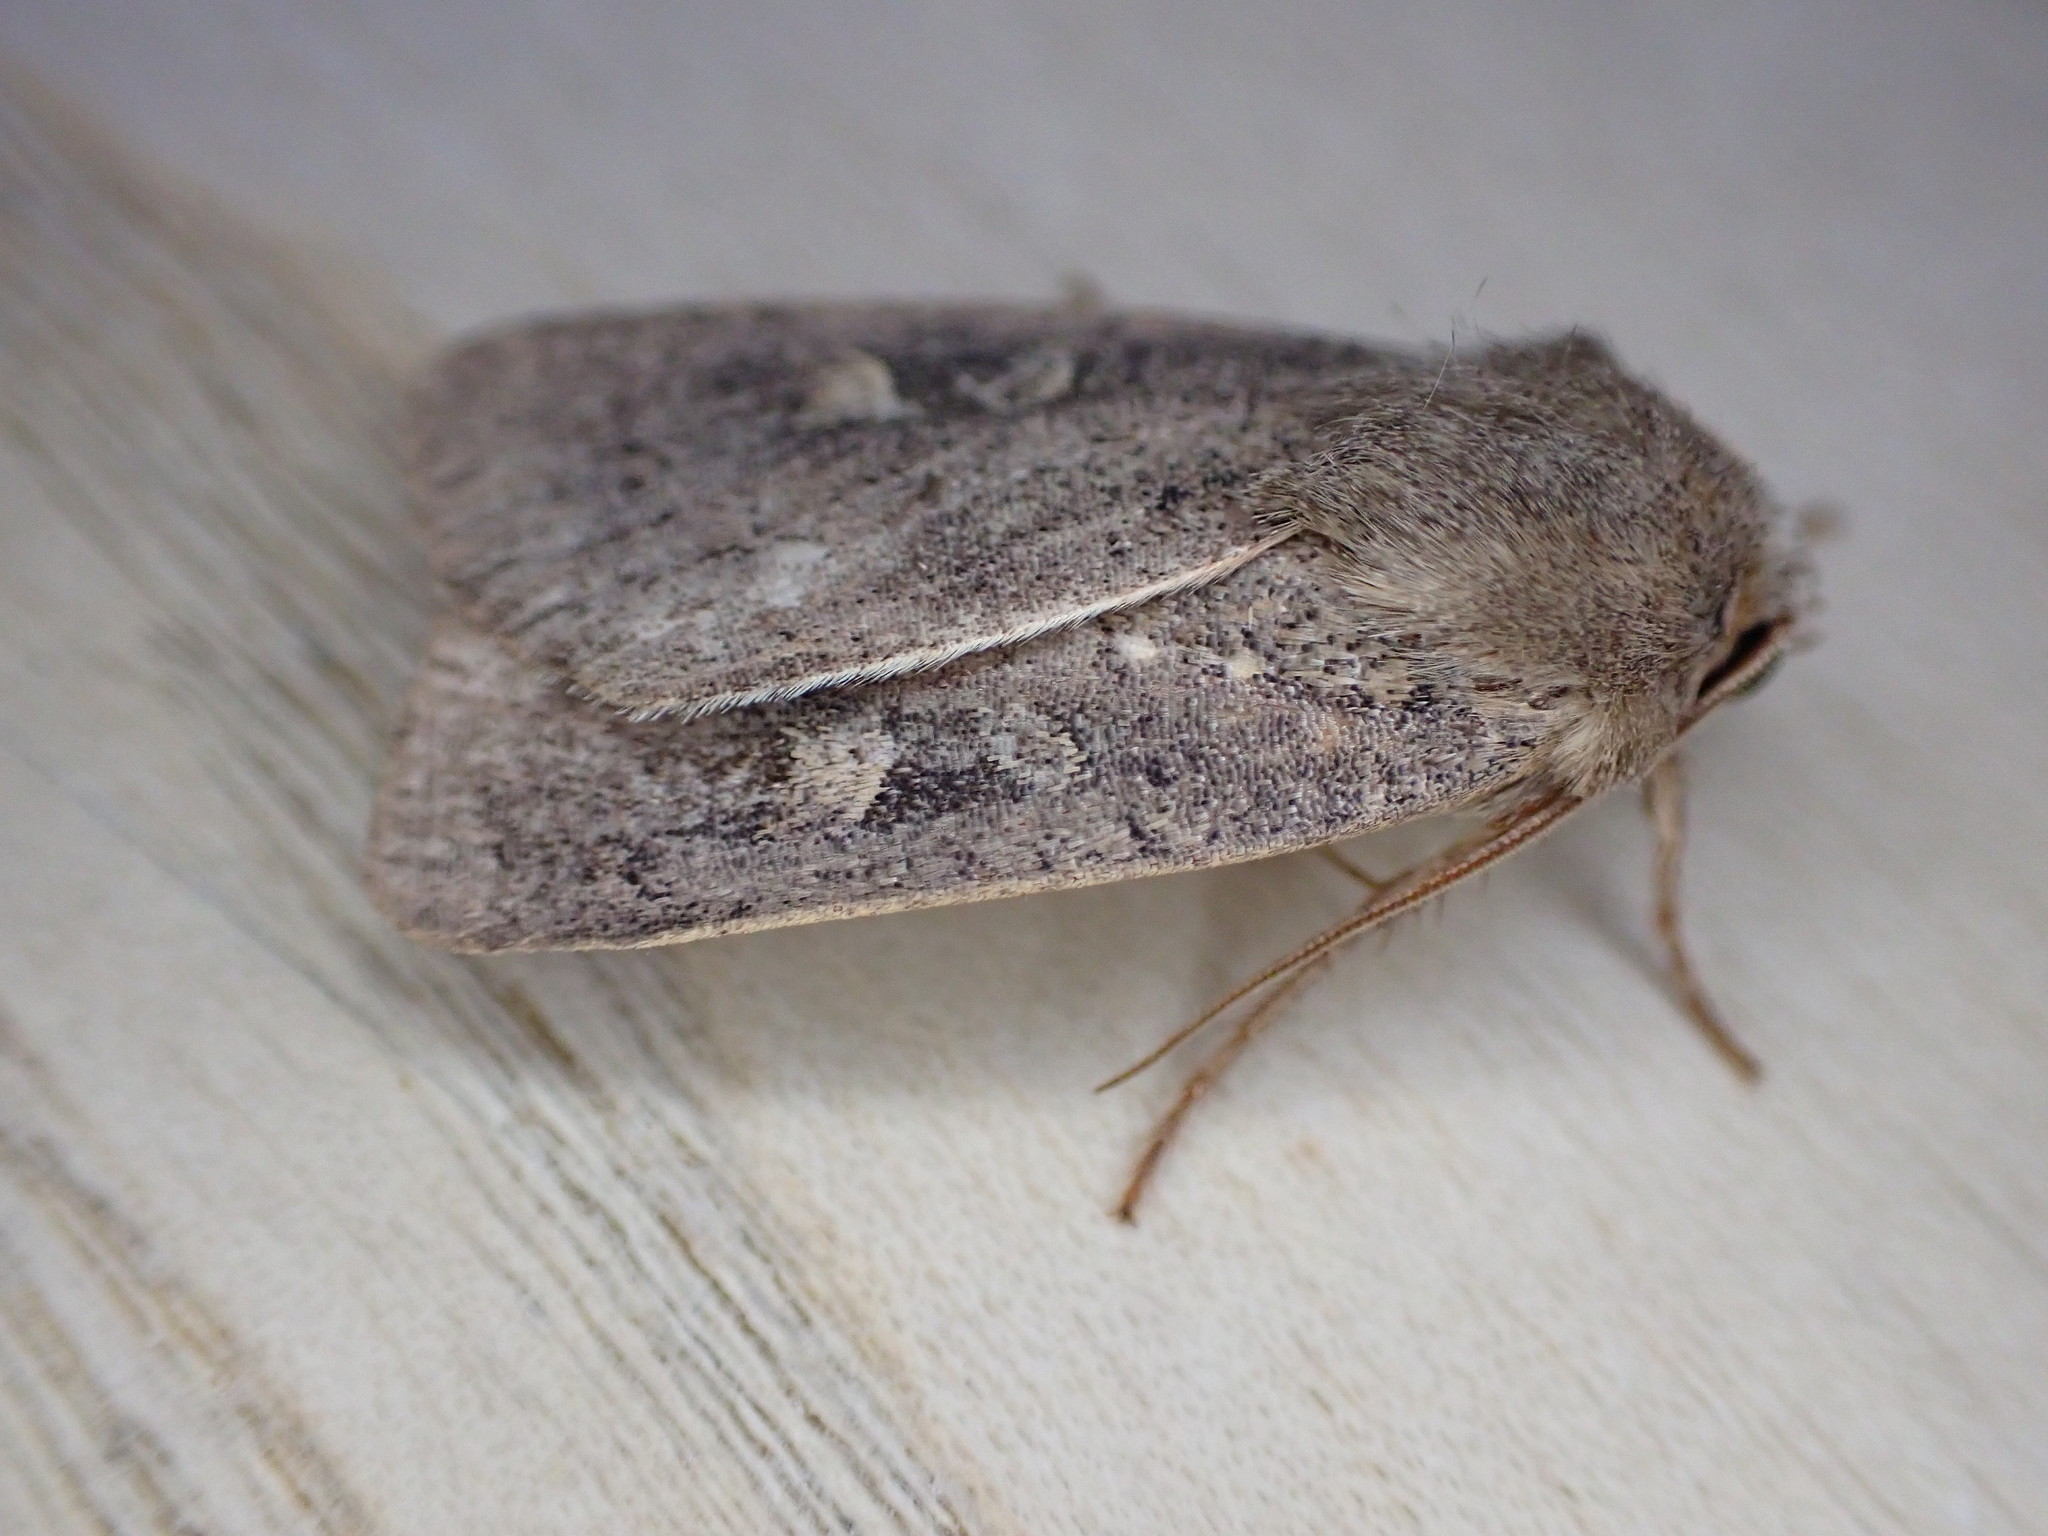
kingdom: Animalia
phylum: Arthropoda
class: Insecta
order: Lepidoptera
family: Noctuidae
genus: Xestia
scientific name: Xestia xanthographa
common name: Square-spot rustic
